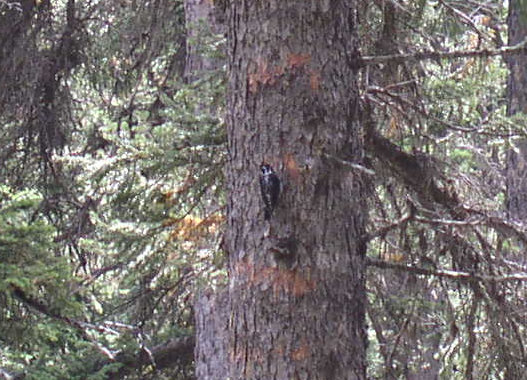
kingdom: Animalia
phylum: Chordata
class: Aves
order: Piciformes
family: Picidae
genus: Picoides
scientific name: Picoides dorsalis
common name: American three-toed woodpecker
